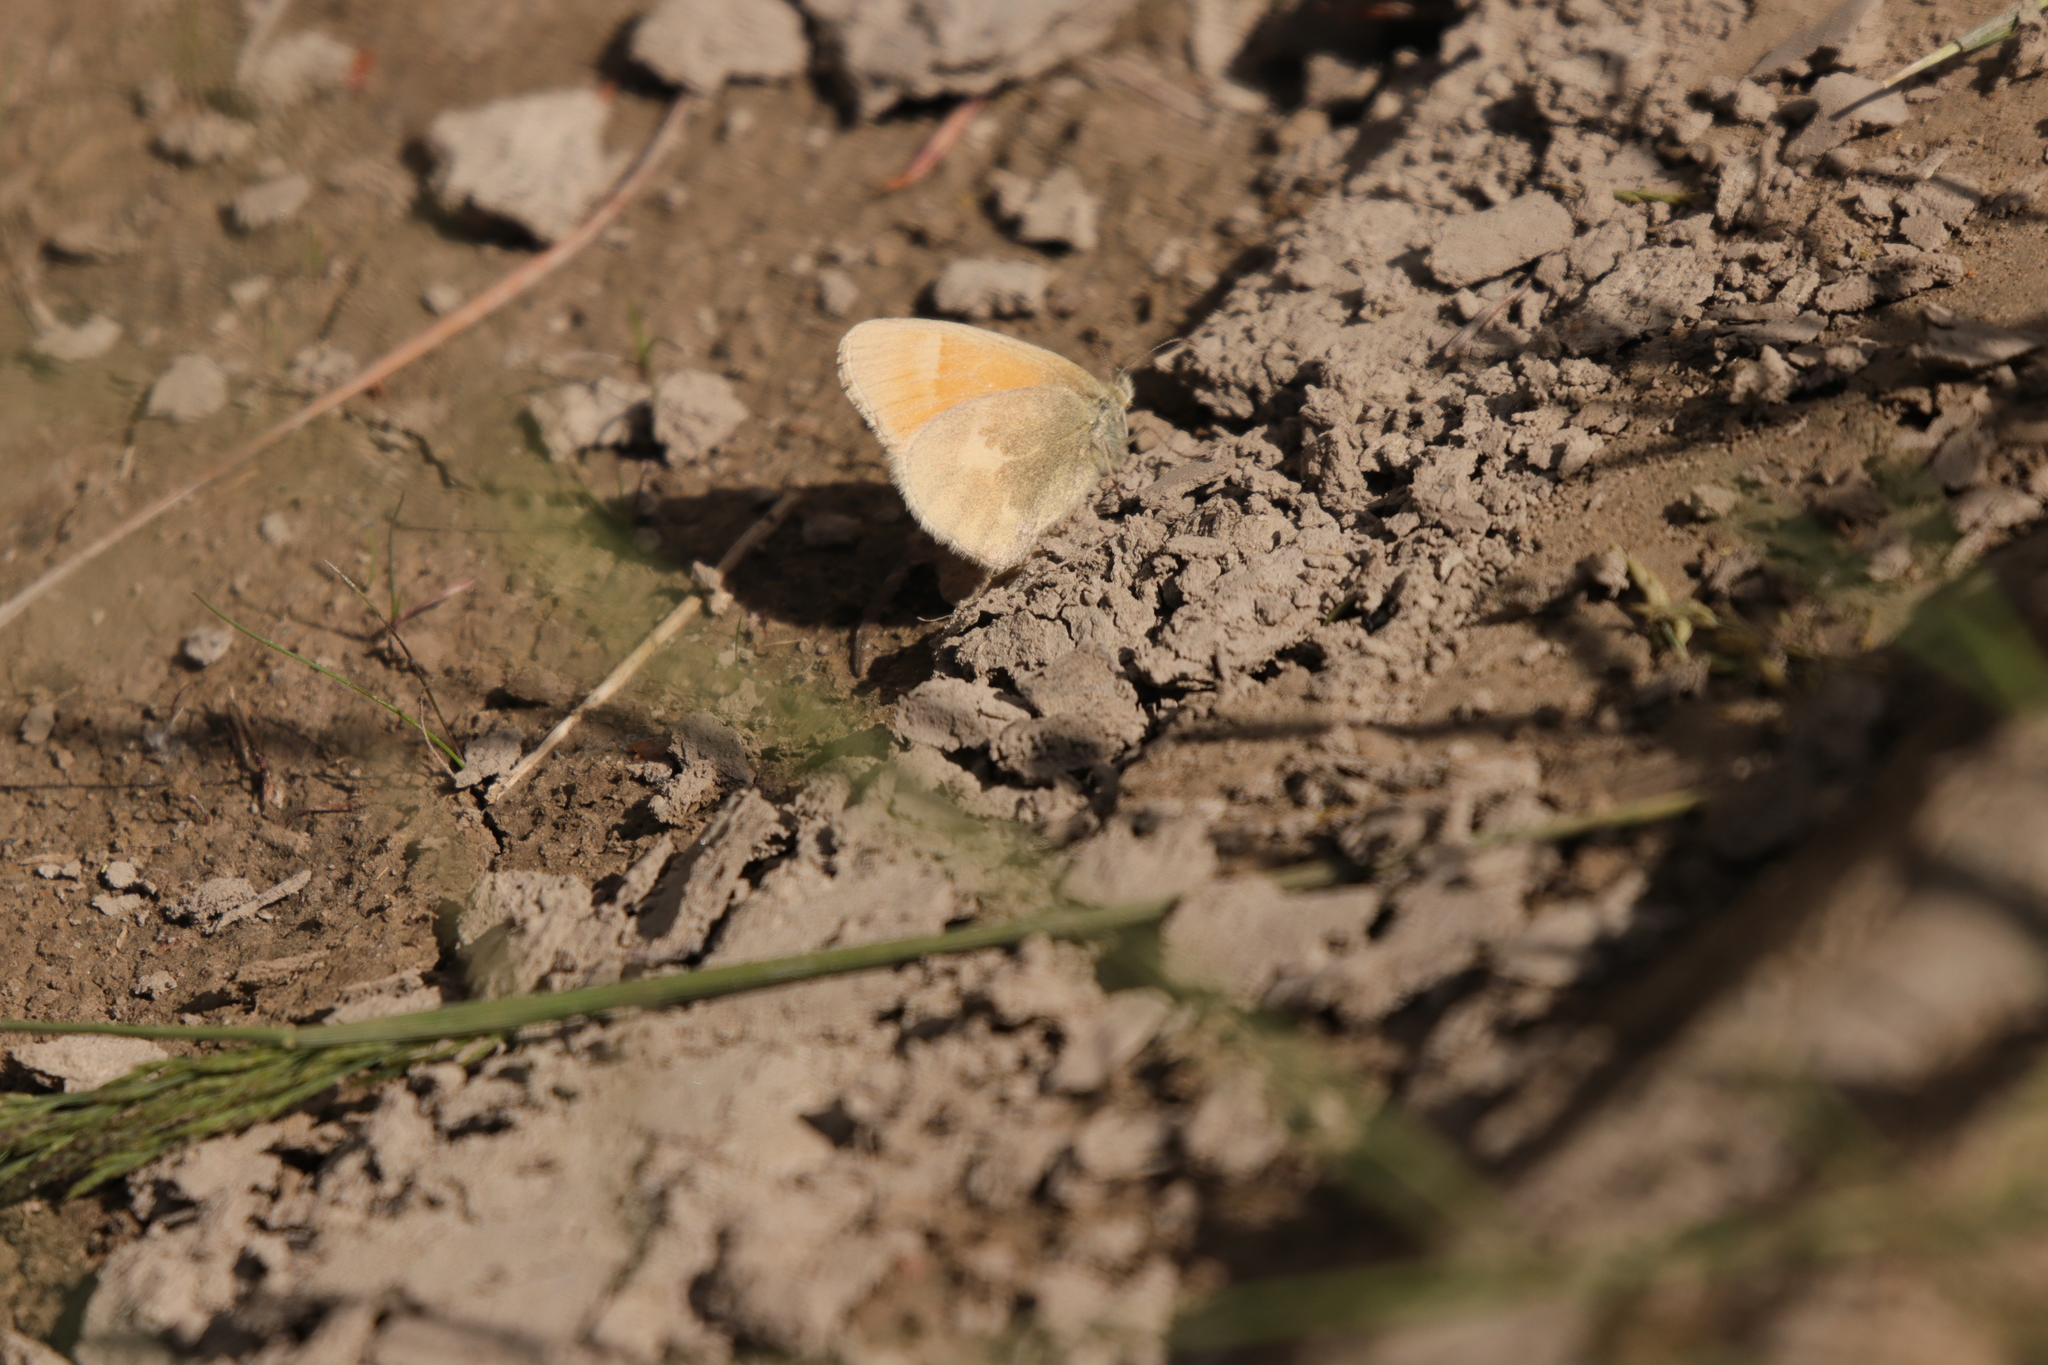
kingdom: Animalia
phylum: Arthropoda
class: Insecta
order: Lepidoptera
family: Nymphalidae
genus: Coenonympha
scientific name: Coenonympha california
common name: Common ringlet
